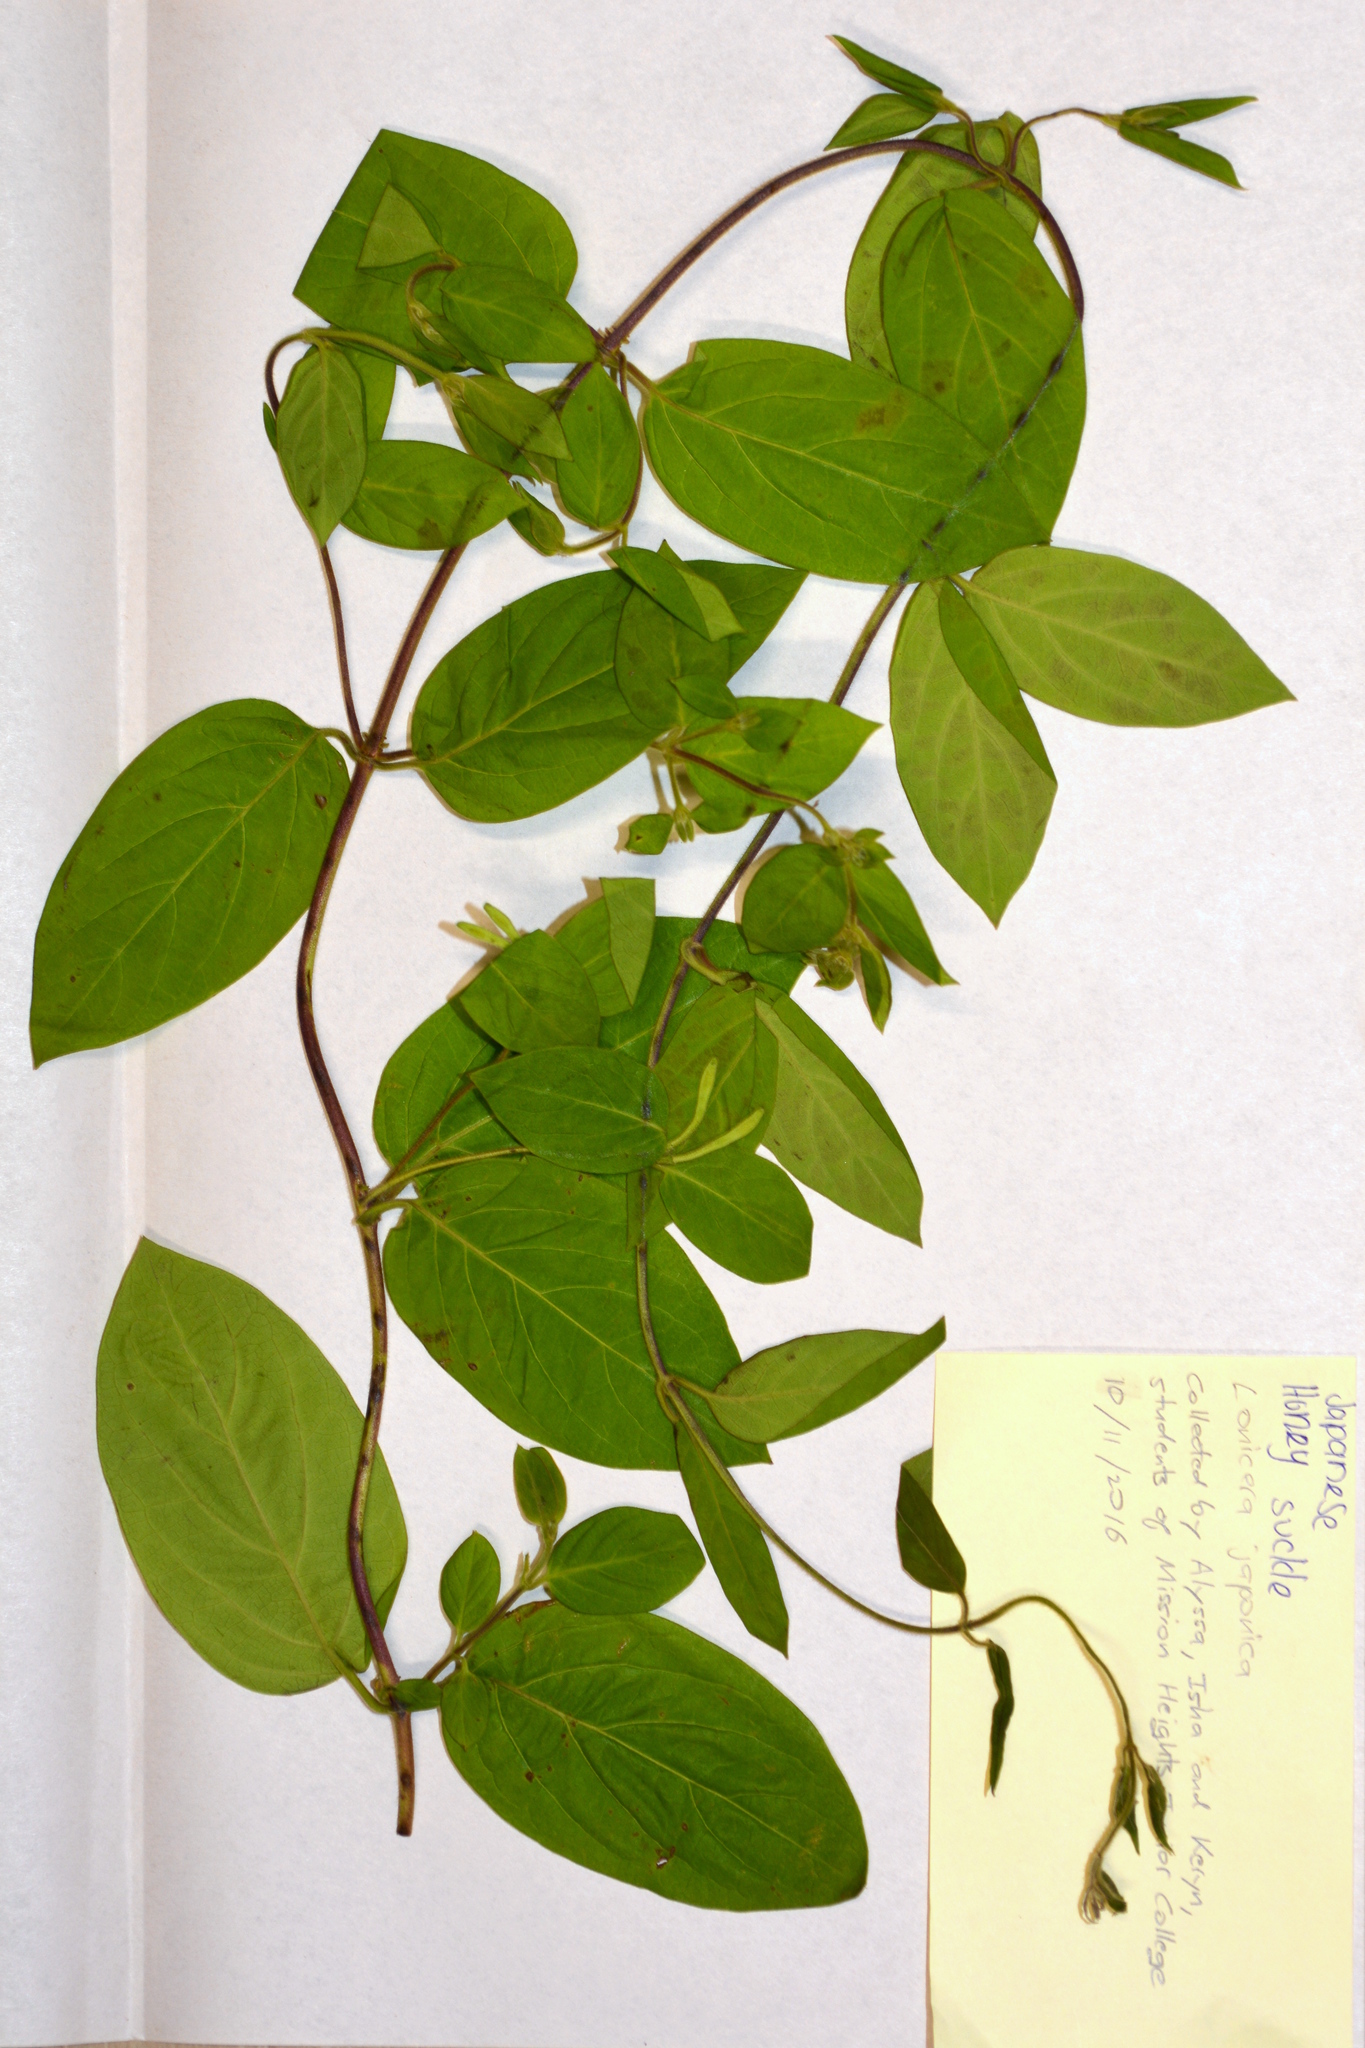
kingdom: Plantae
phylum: Tracheophyta
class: Magnoliopsida
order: Dipsacales
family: Caprifoliaceae
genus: Lonicera
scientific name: Lonicera japonica
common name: Japanese honeysuckle
